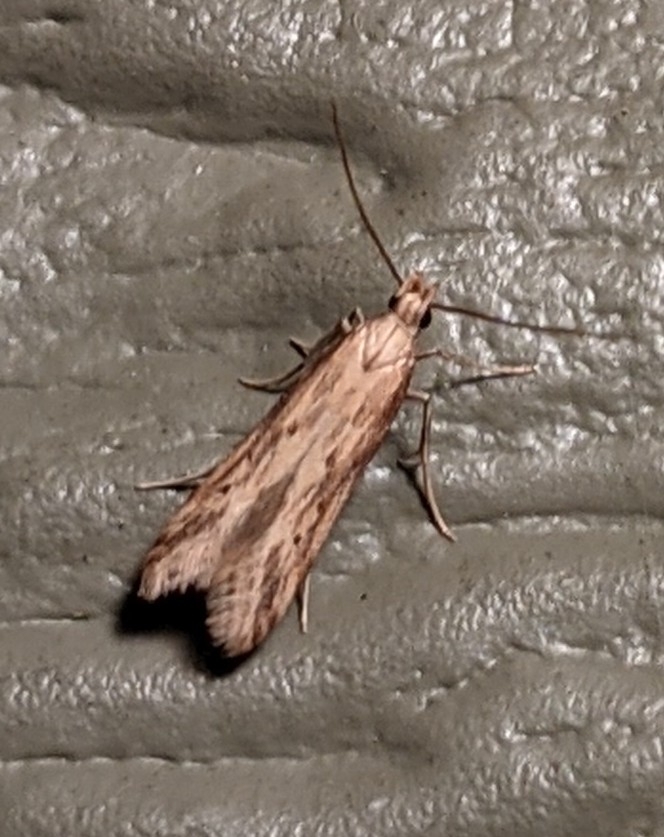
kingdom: Animalia
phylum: Arthropoda
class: Insecta
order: Lepidoptera
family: Gelechiidae
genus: Metzneria
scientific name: Metzneria lappella
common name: Burdock neb
